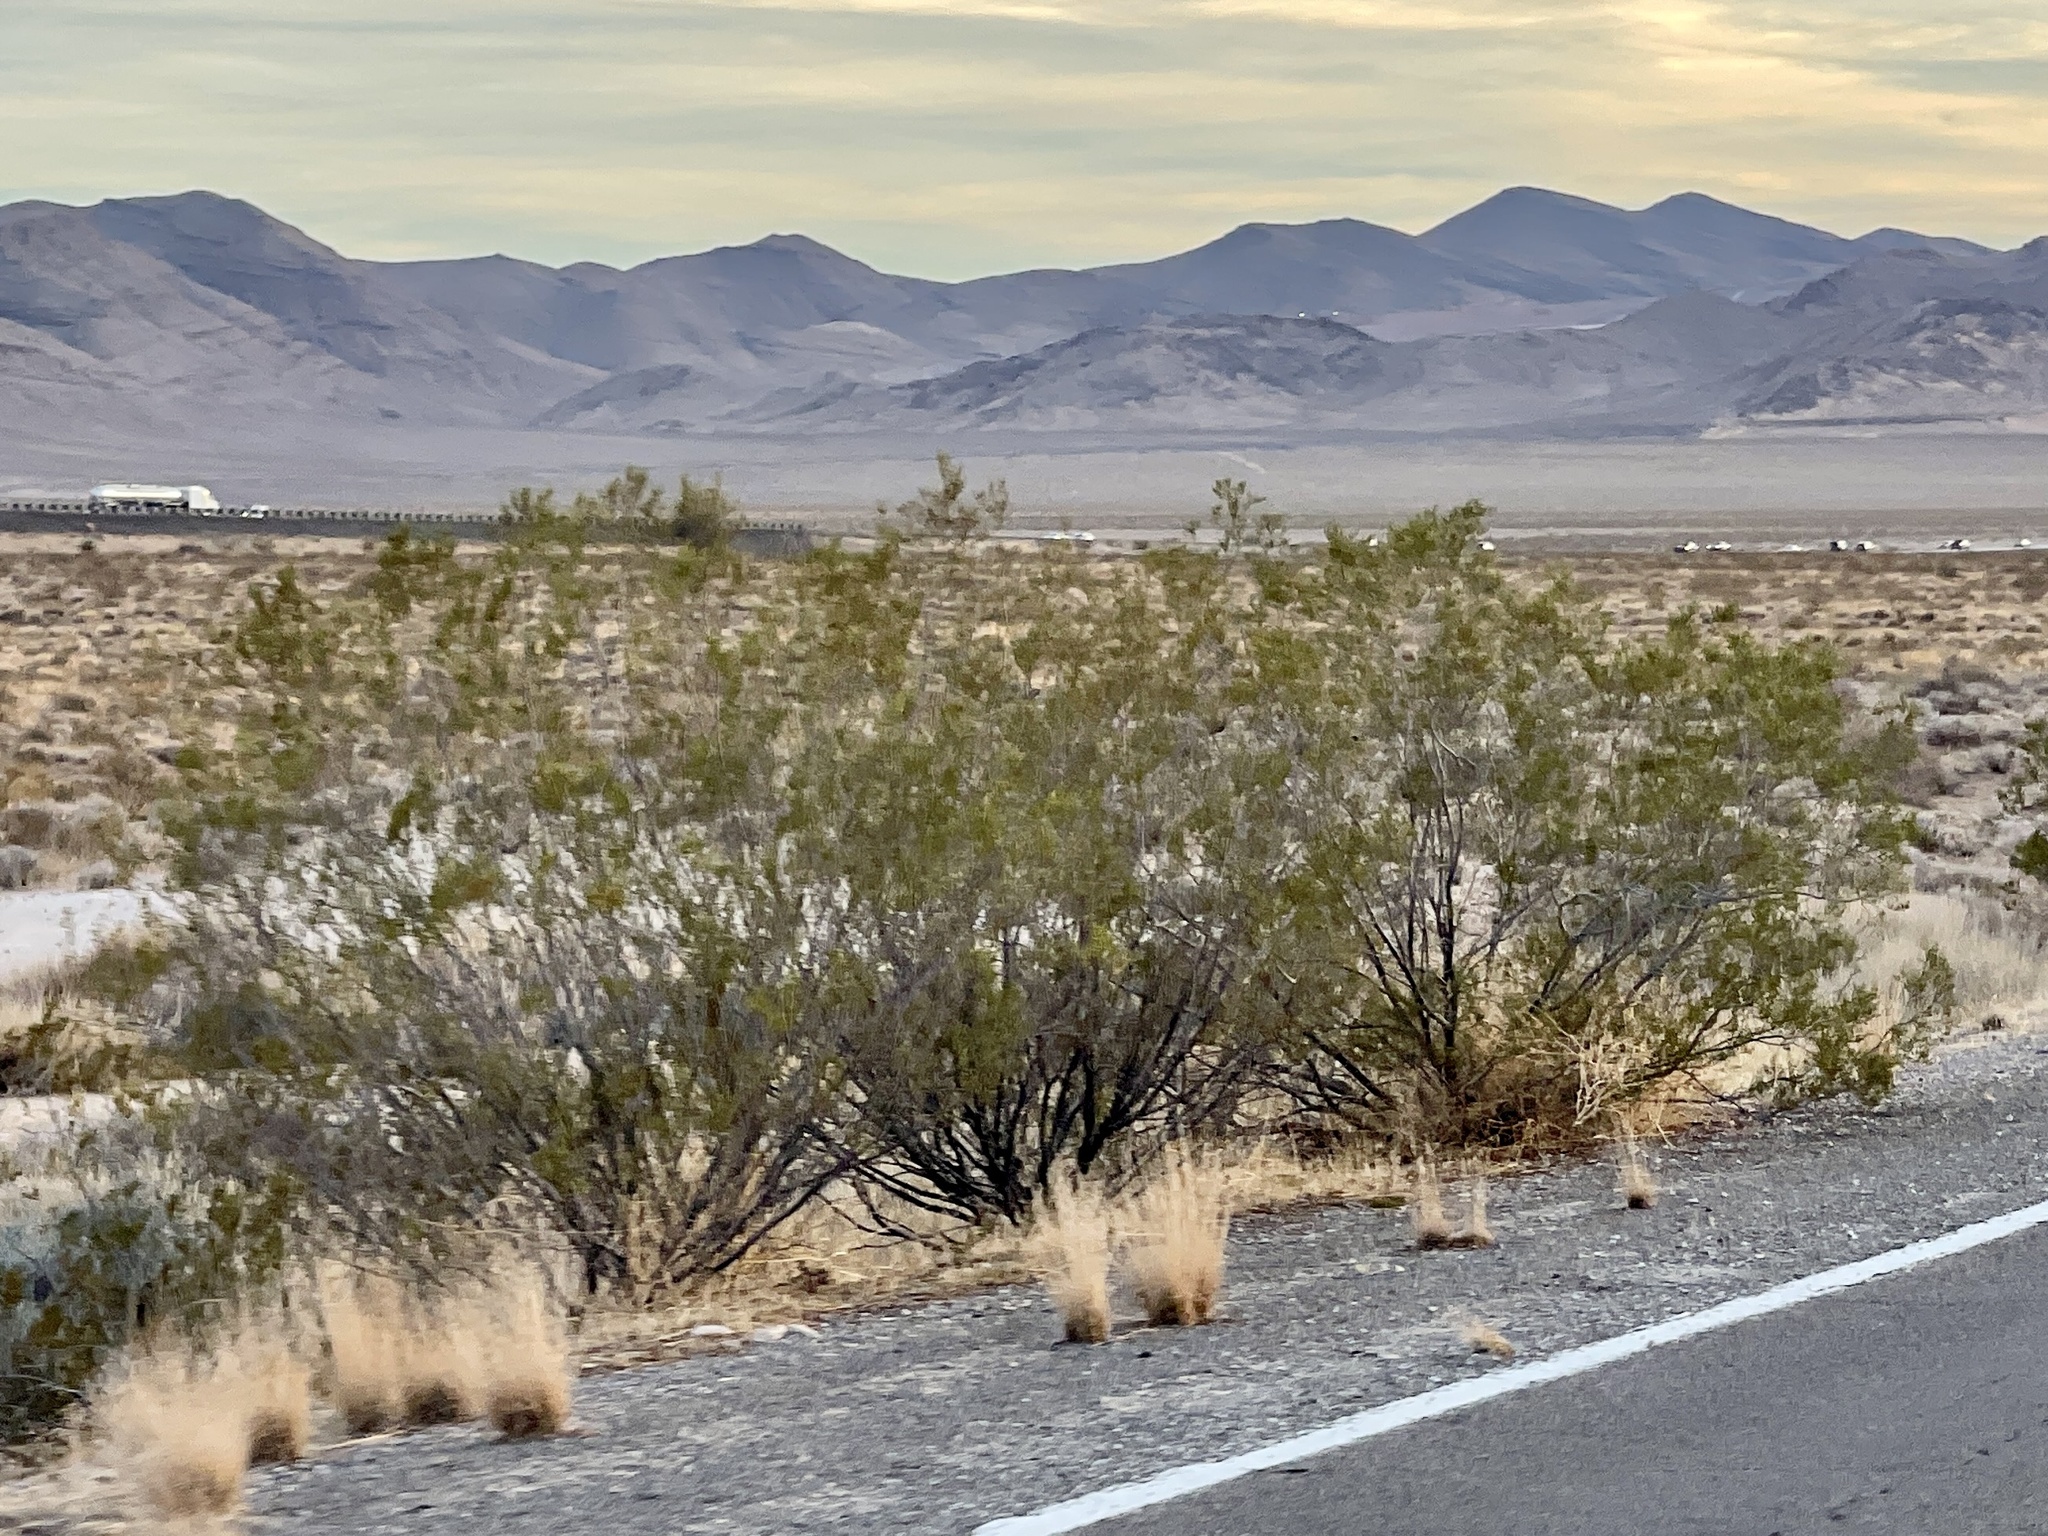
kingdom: Plantae
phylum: Tracheophyta
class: Magnoliopsida
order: Zygophyllales
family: Zygophyllaceae
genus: Larrea
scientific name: Larrea tridentata
